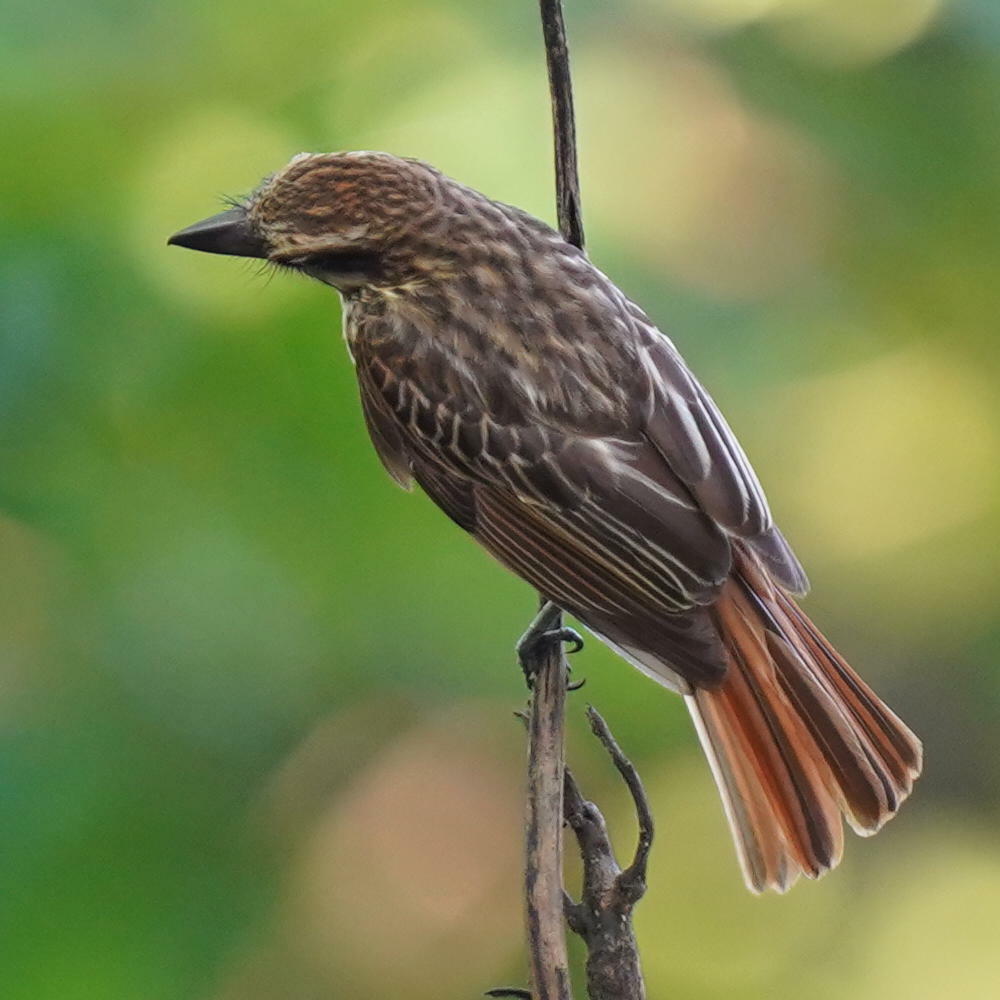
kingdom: Animalia
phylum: Chordata
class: Aves
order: Passeriformes
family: Tyrannidae
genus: Myiodynastes
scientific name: Myiodynastes maculatus
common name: Streaked flycatcher
